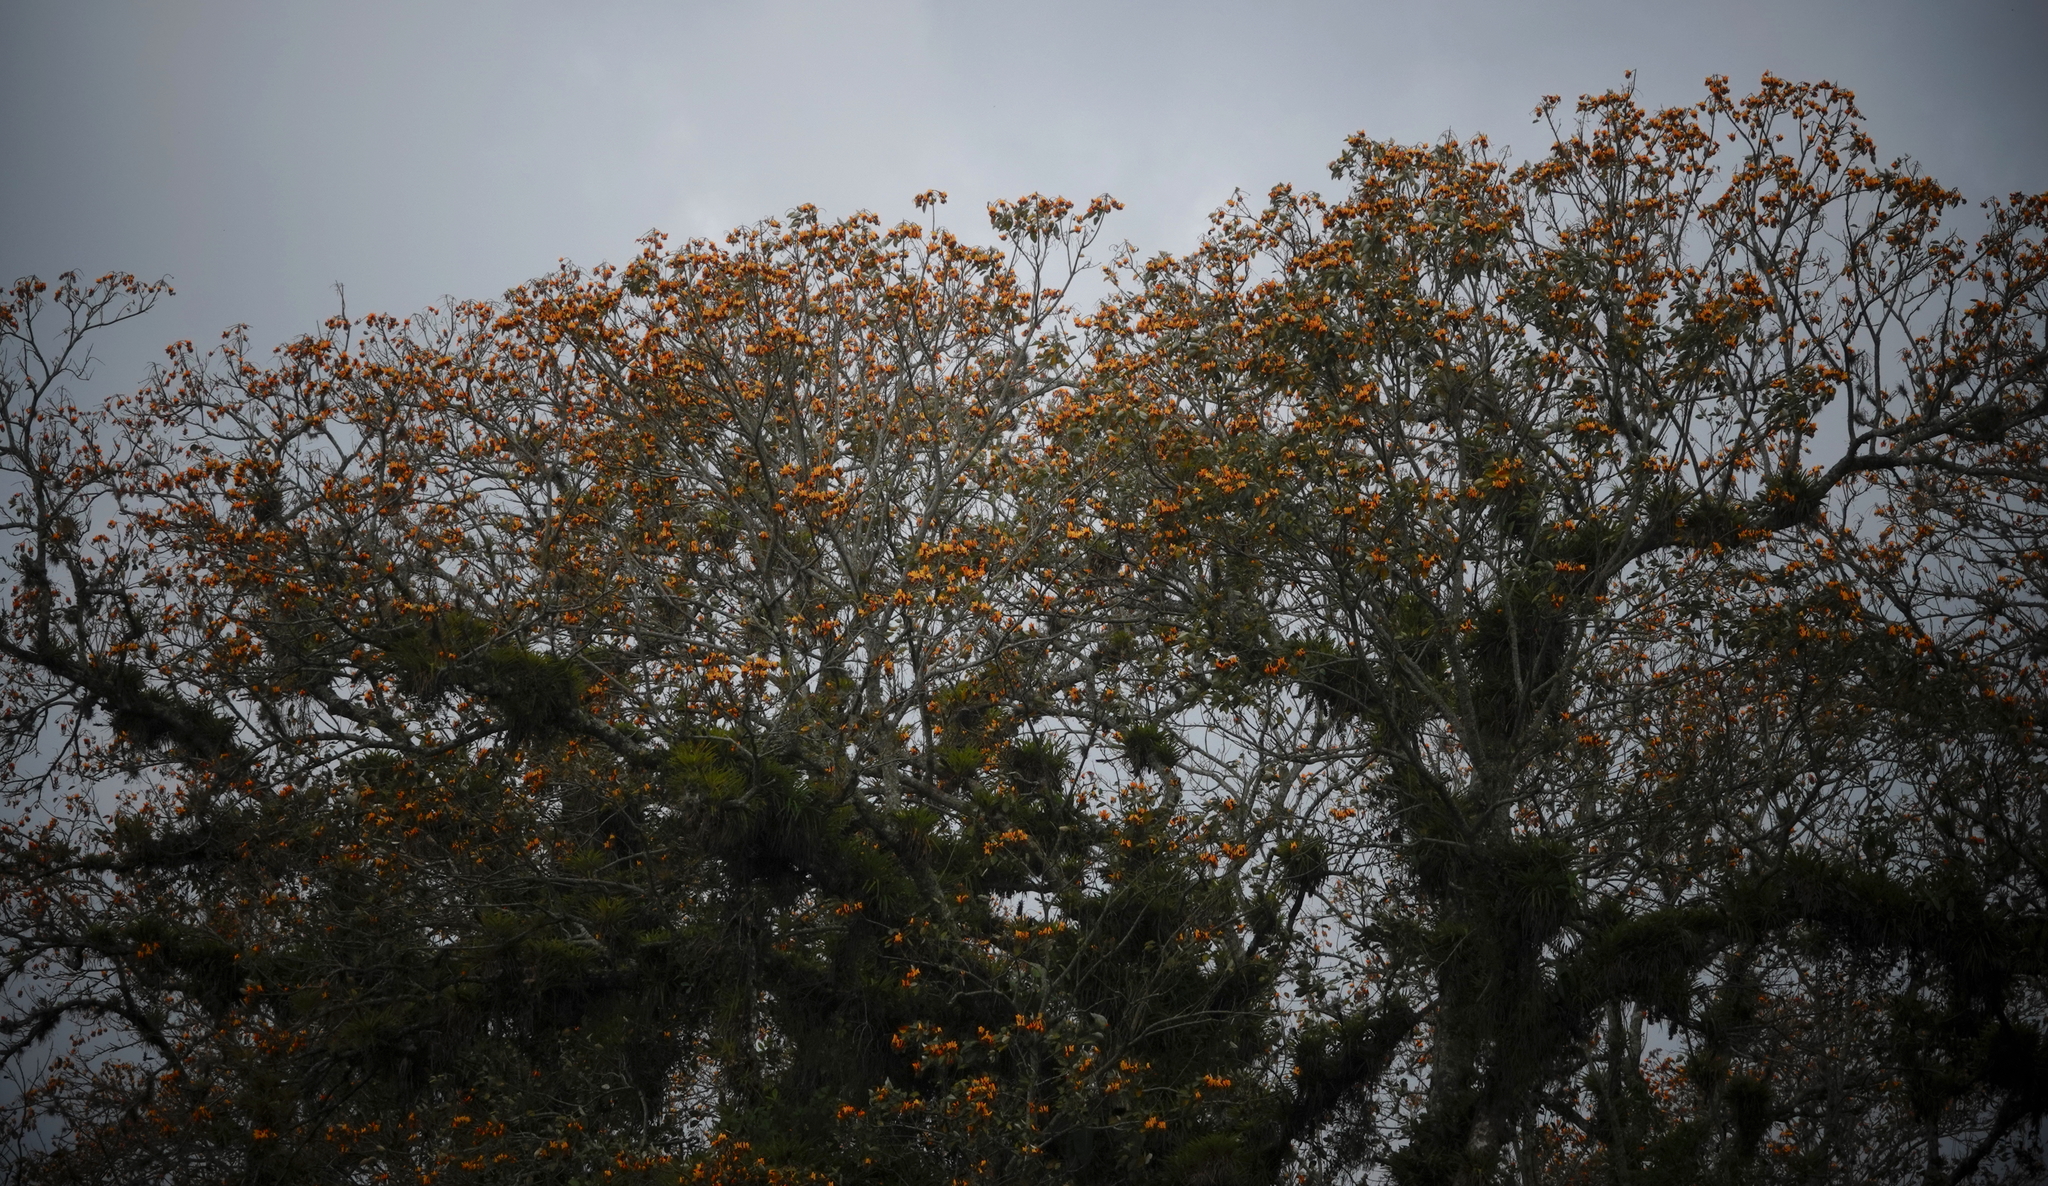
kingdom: Plantae
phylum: Tracheophyta
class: Magnoliopsida
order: Fabales
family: Fabaceae
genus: Erythrina
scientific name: Erythrina fusca
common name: Coral-bean
